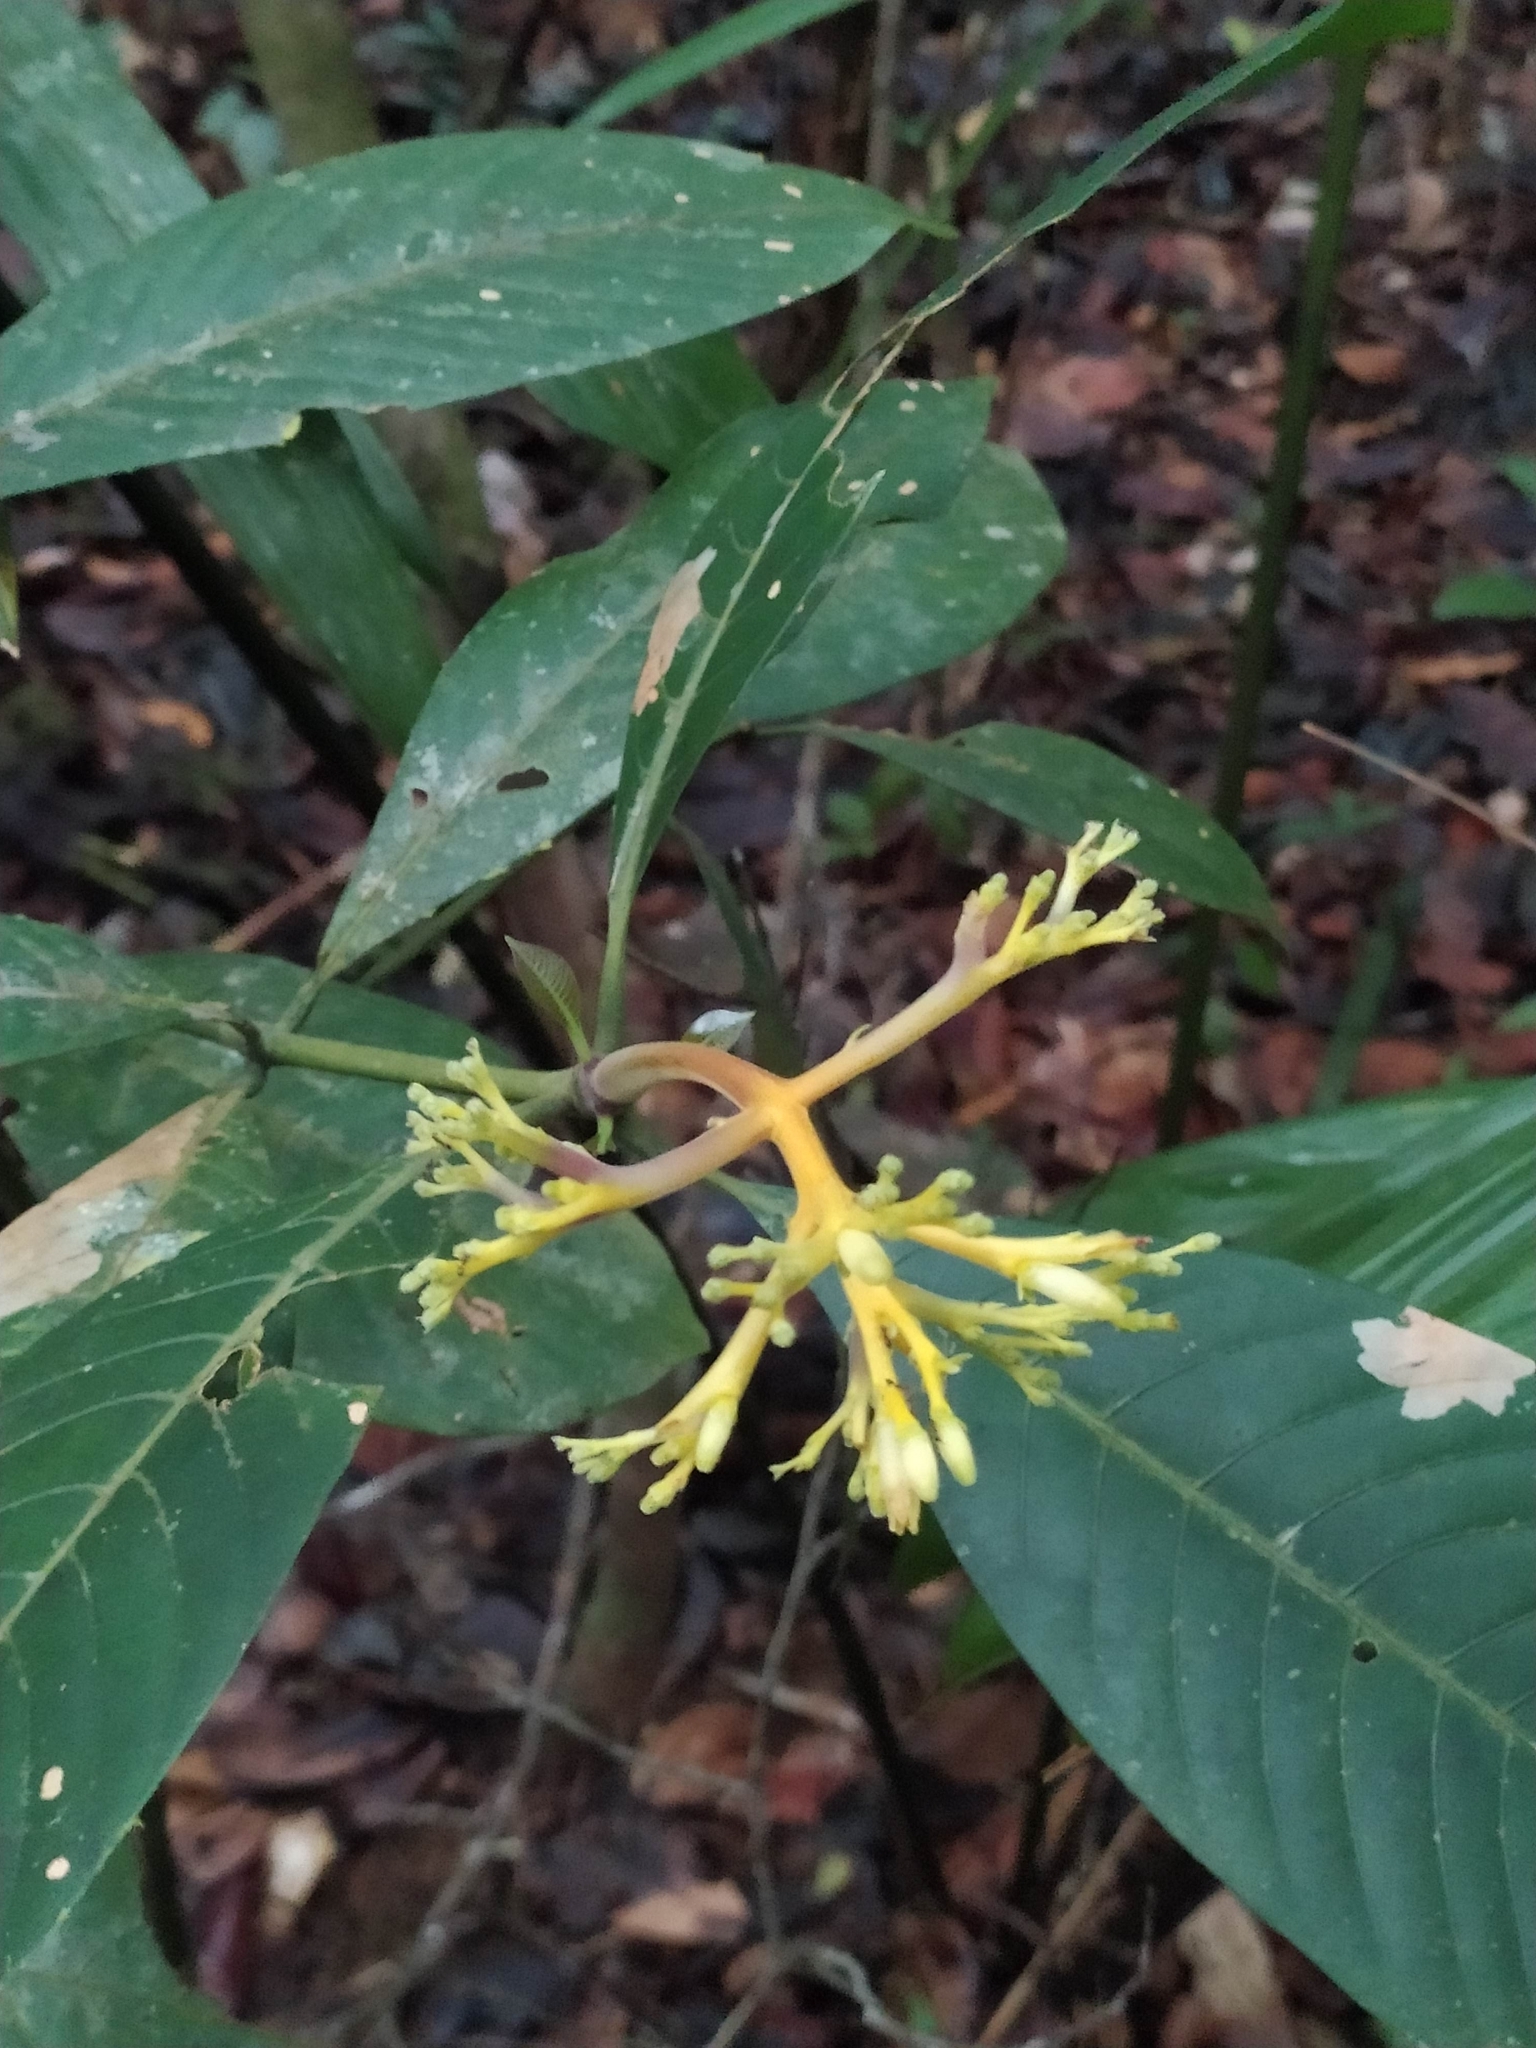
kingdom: Plantae
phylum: Tracheophyta
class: Magnoliopsida
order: Gentianales
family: Rubiaceae
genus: Palicourea
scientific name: Palicourea quadrifolia
